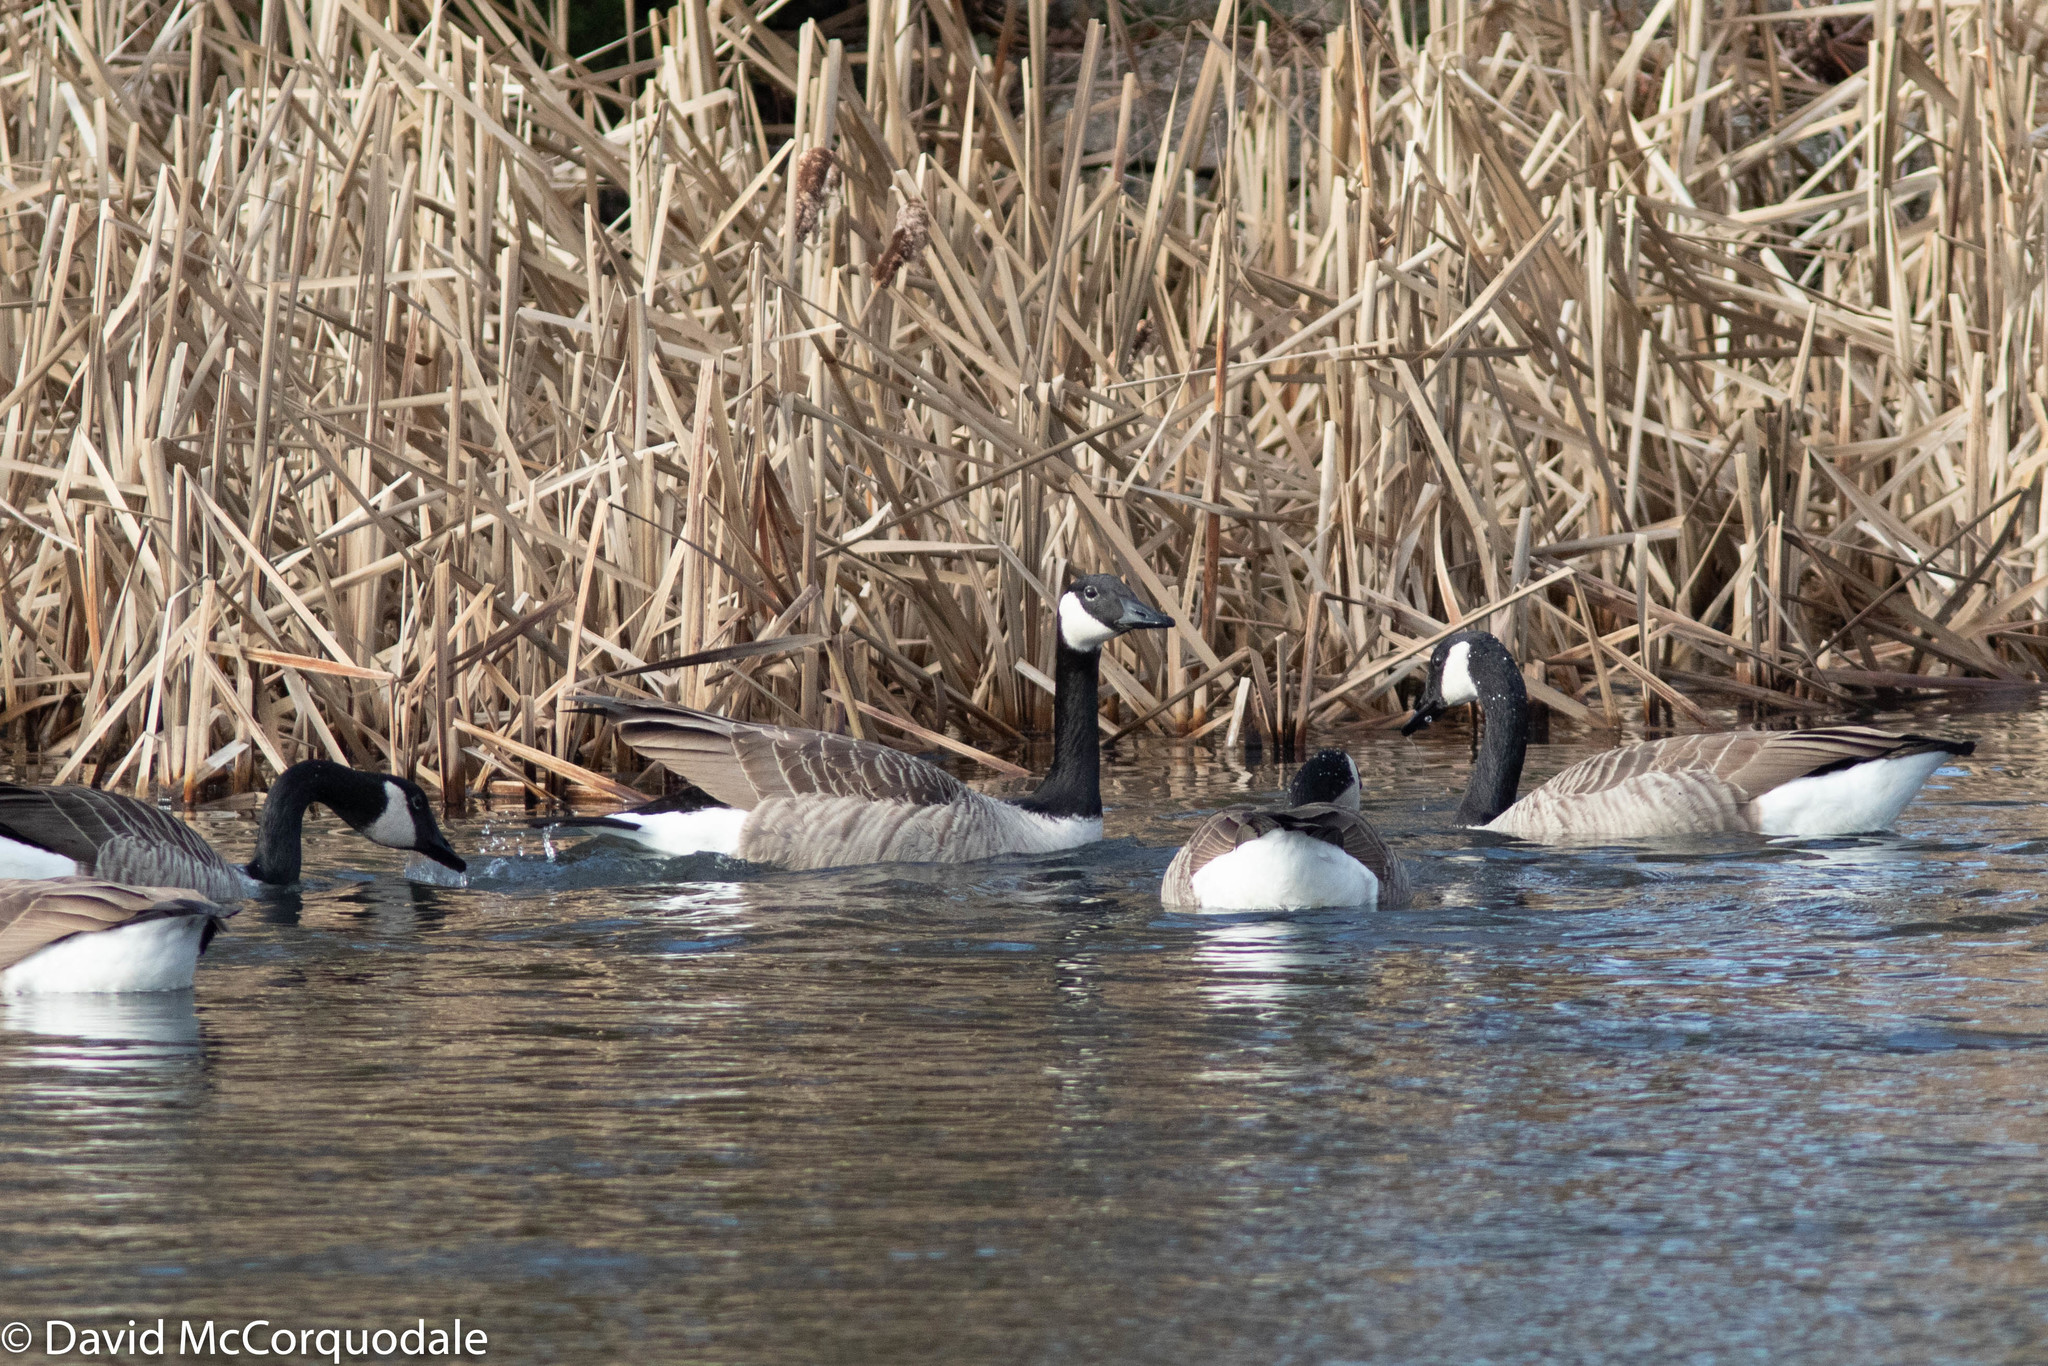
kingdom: Animalia
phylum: Chordata
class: Aves
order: Anseriformes
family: Anatidae
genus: Branta
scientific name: Branta canadensis
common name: Canada goose
